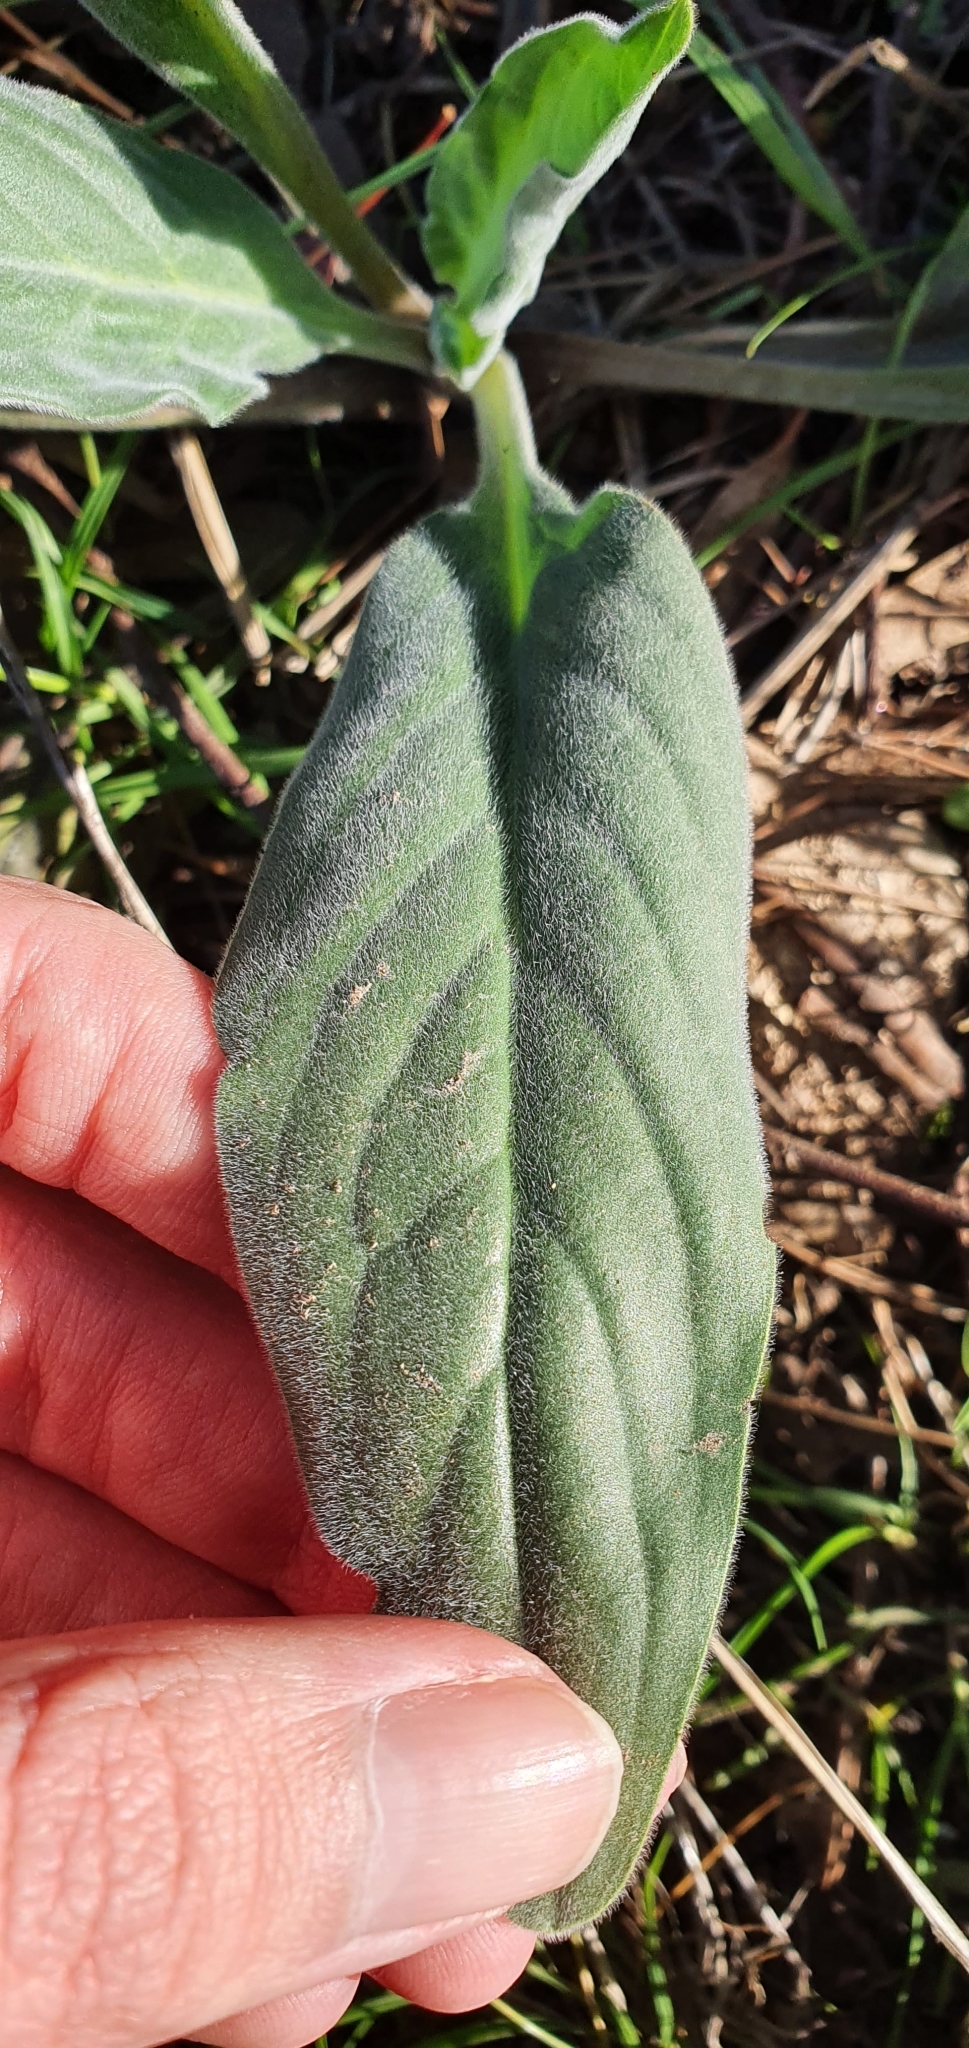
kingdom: Plantae
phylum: Tracheophyta
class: Magnoliopsida
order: Boraginales
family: Boraginaceae
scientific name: Boraginaceae
